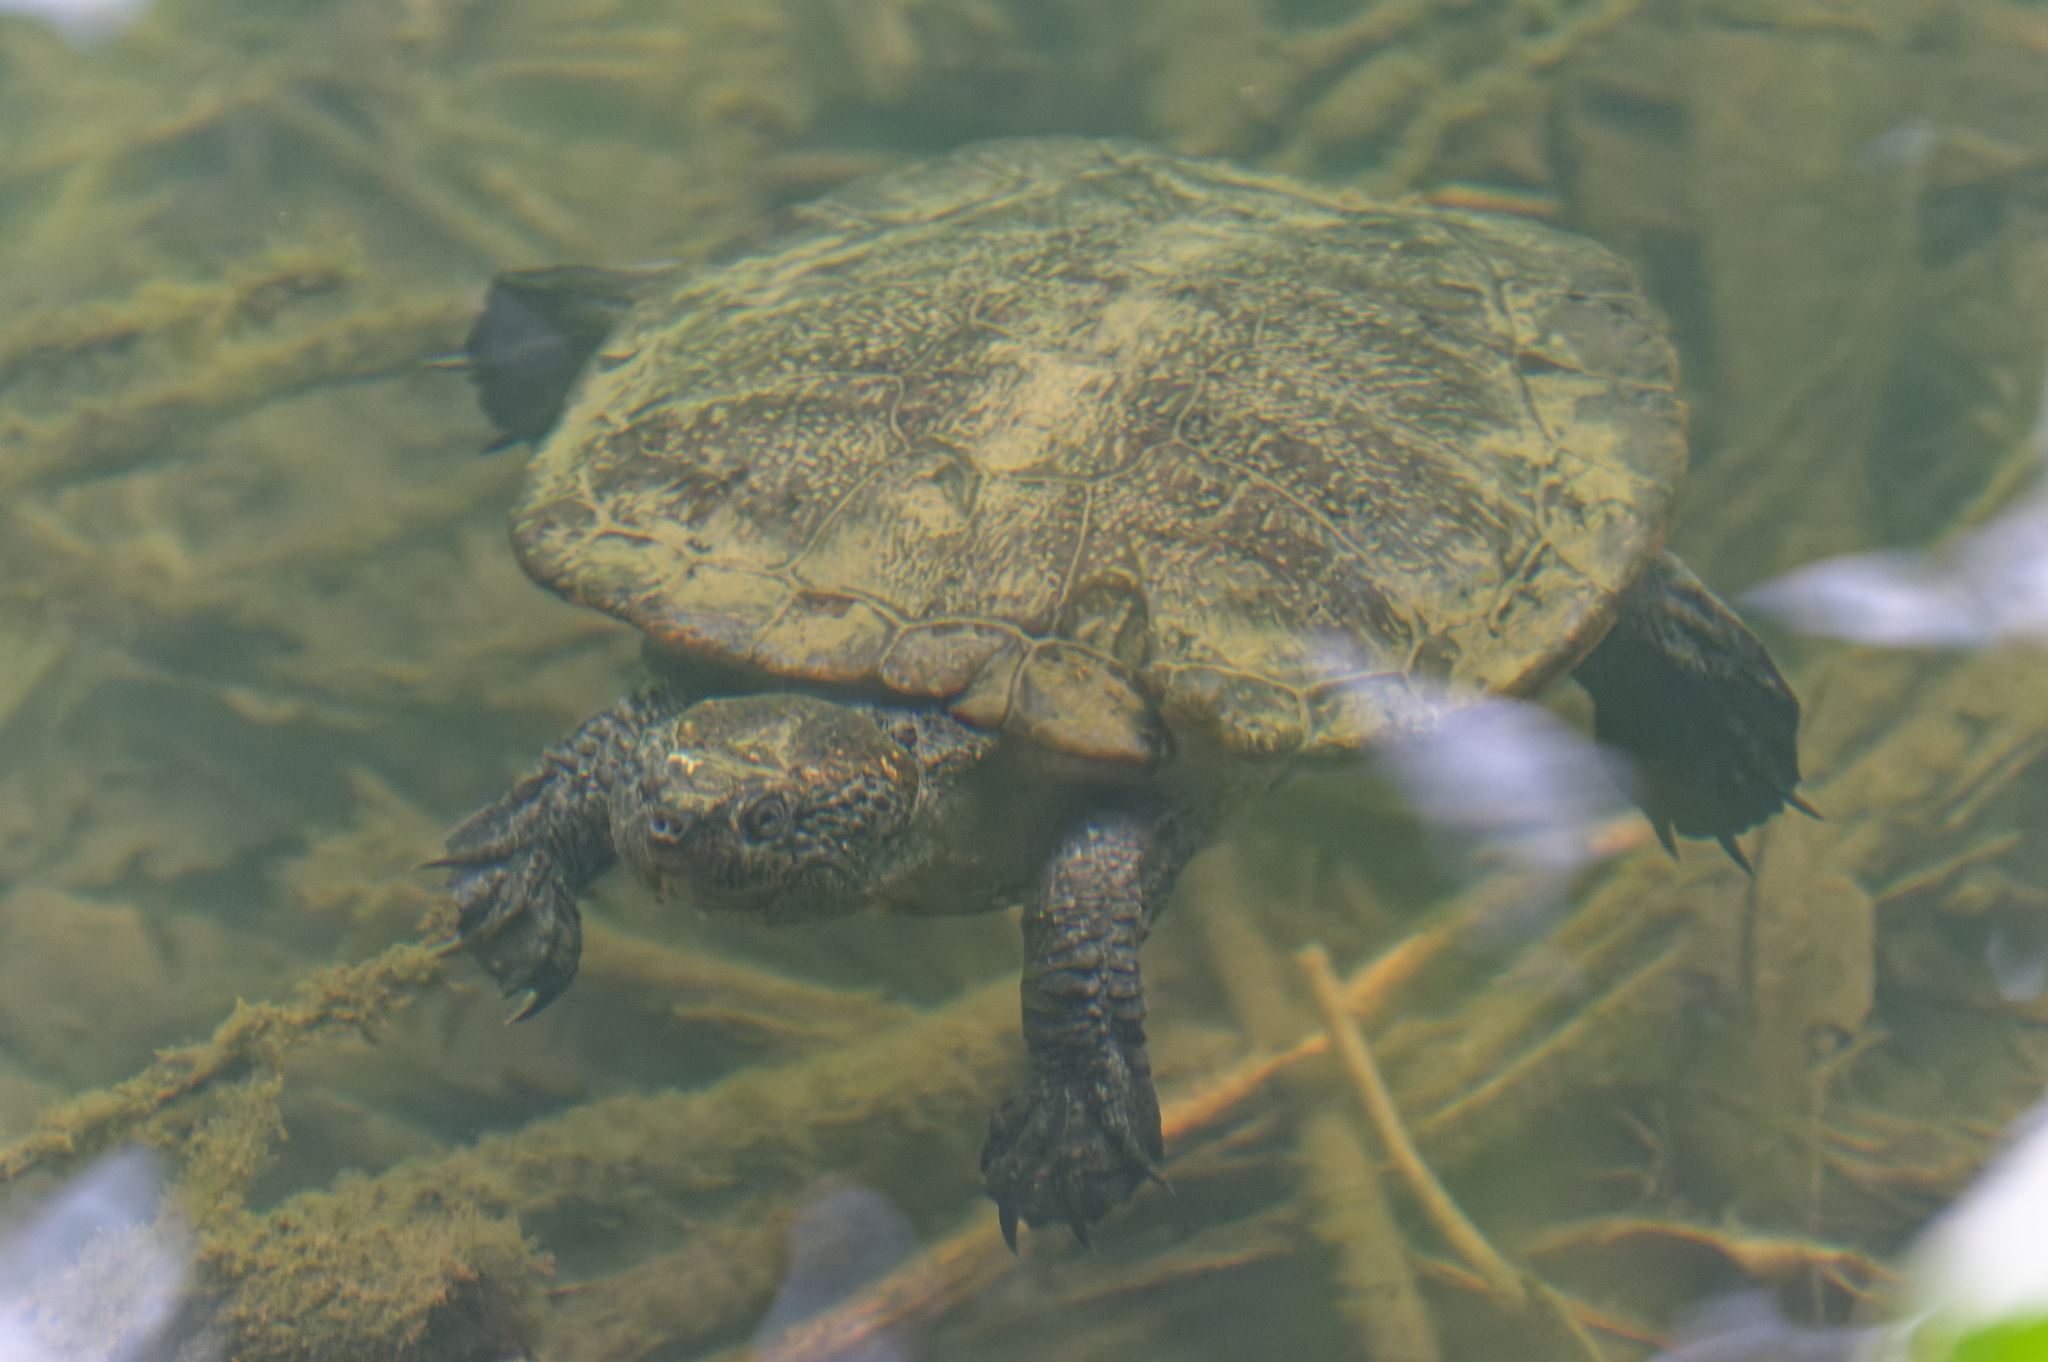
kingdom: Animalia
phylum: Chordata
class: Testudines
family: Chelidae
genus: Myuchelys
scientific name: Myuchelys latisternum
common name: Serrated snapping turtle
